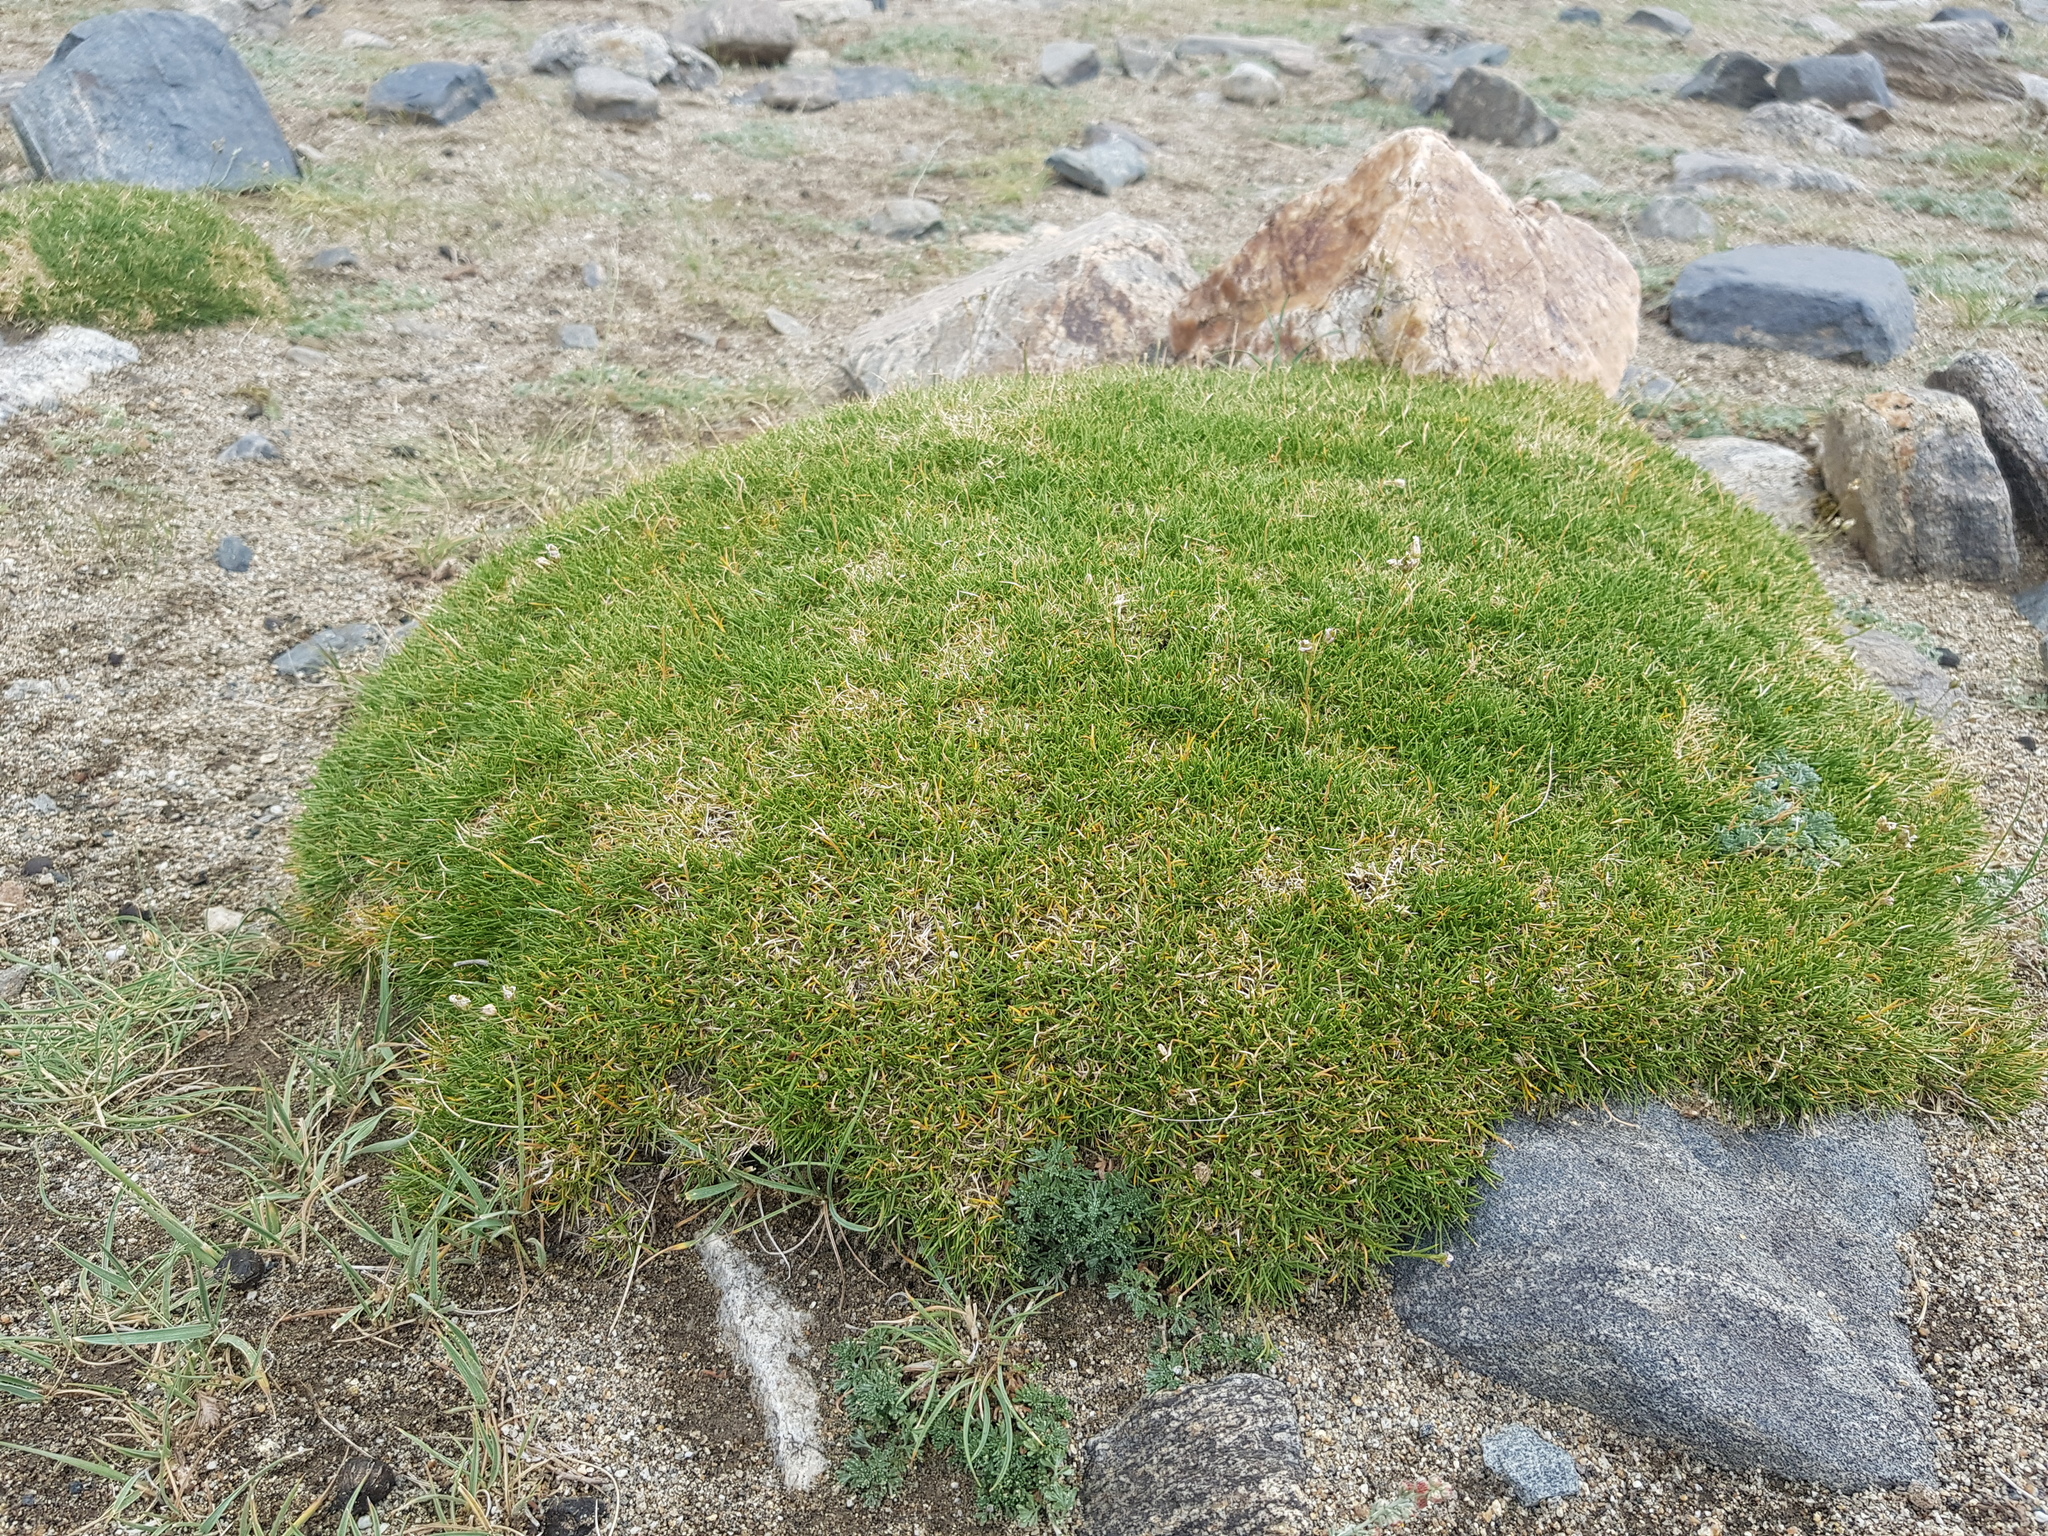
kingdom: Plantae
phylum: Tracheophyta
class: Magnoliopsida
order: Caryophyllales
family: Caryophyllaceae
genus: Eremogone
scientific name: Eremogone meyeri
